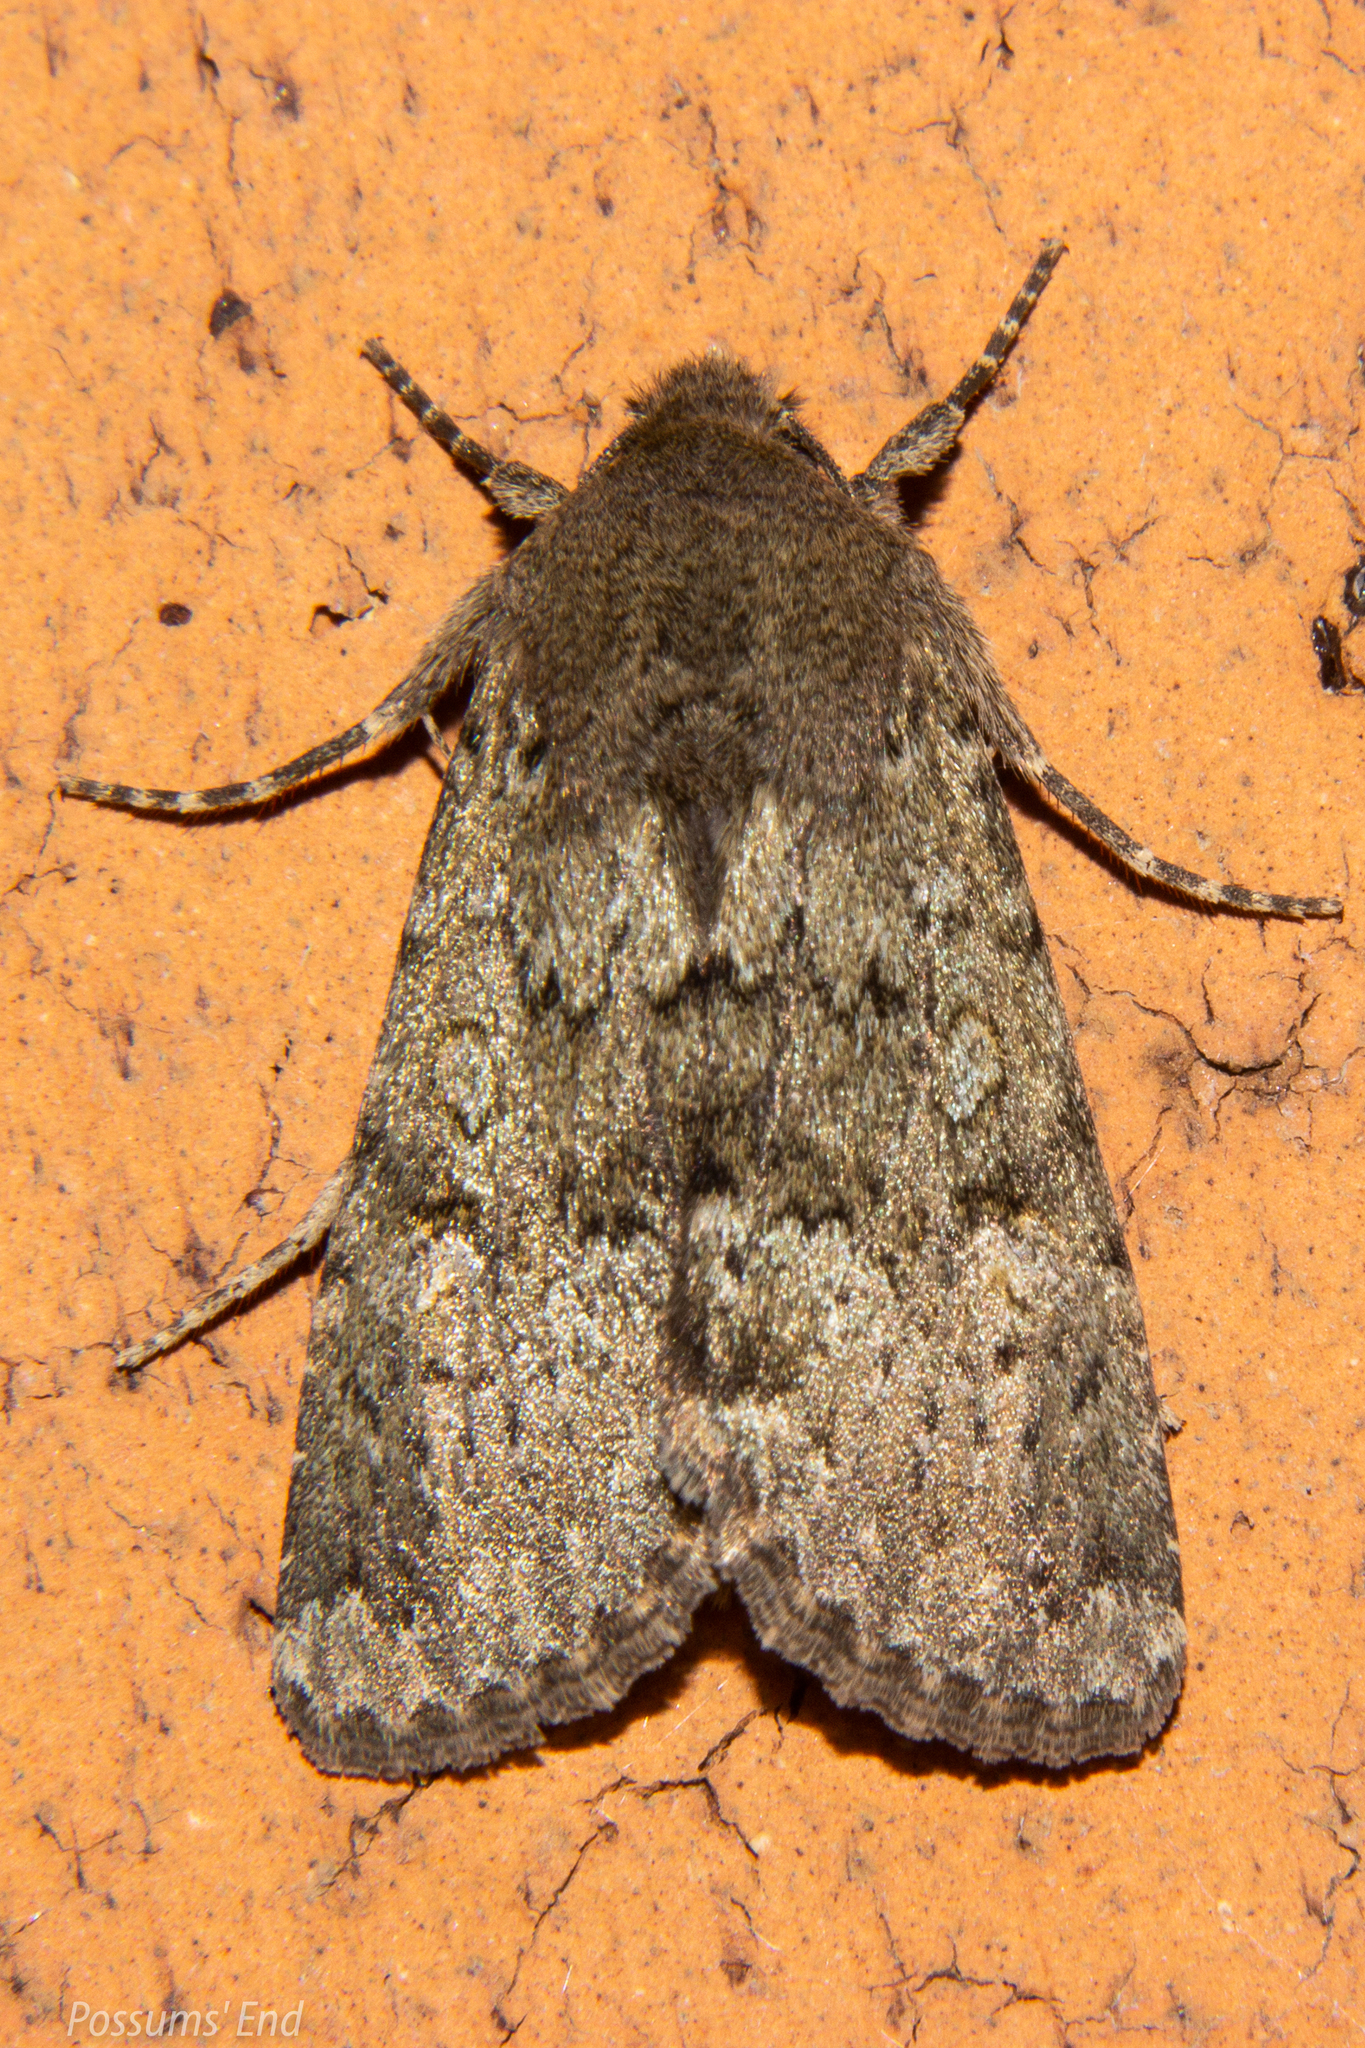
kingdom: Animalia
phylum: Arthropoda
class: Insecta
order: Lepidoptera
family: Noctuidae
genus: Ichneutica
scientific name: Ichneutica moderata
